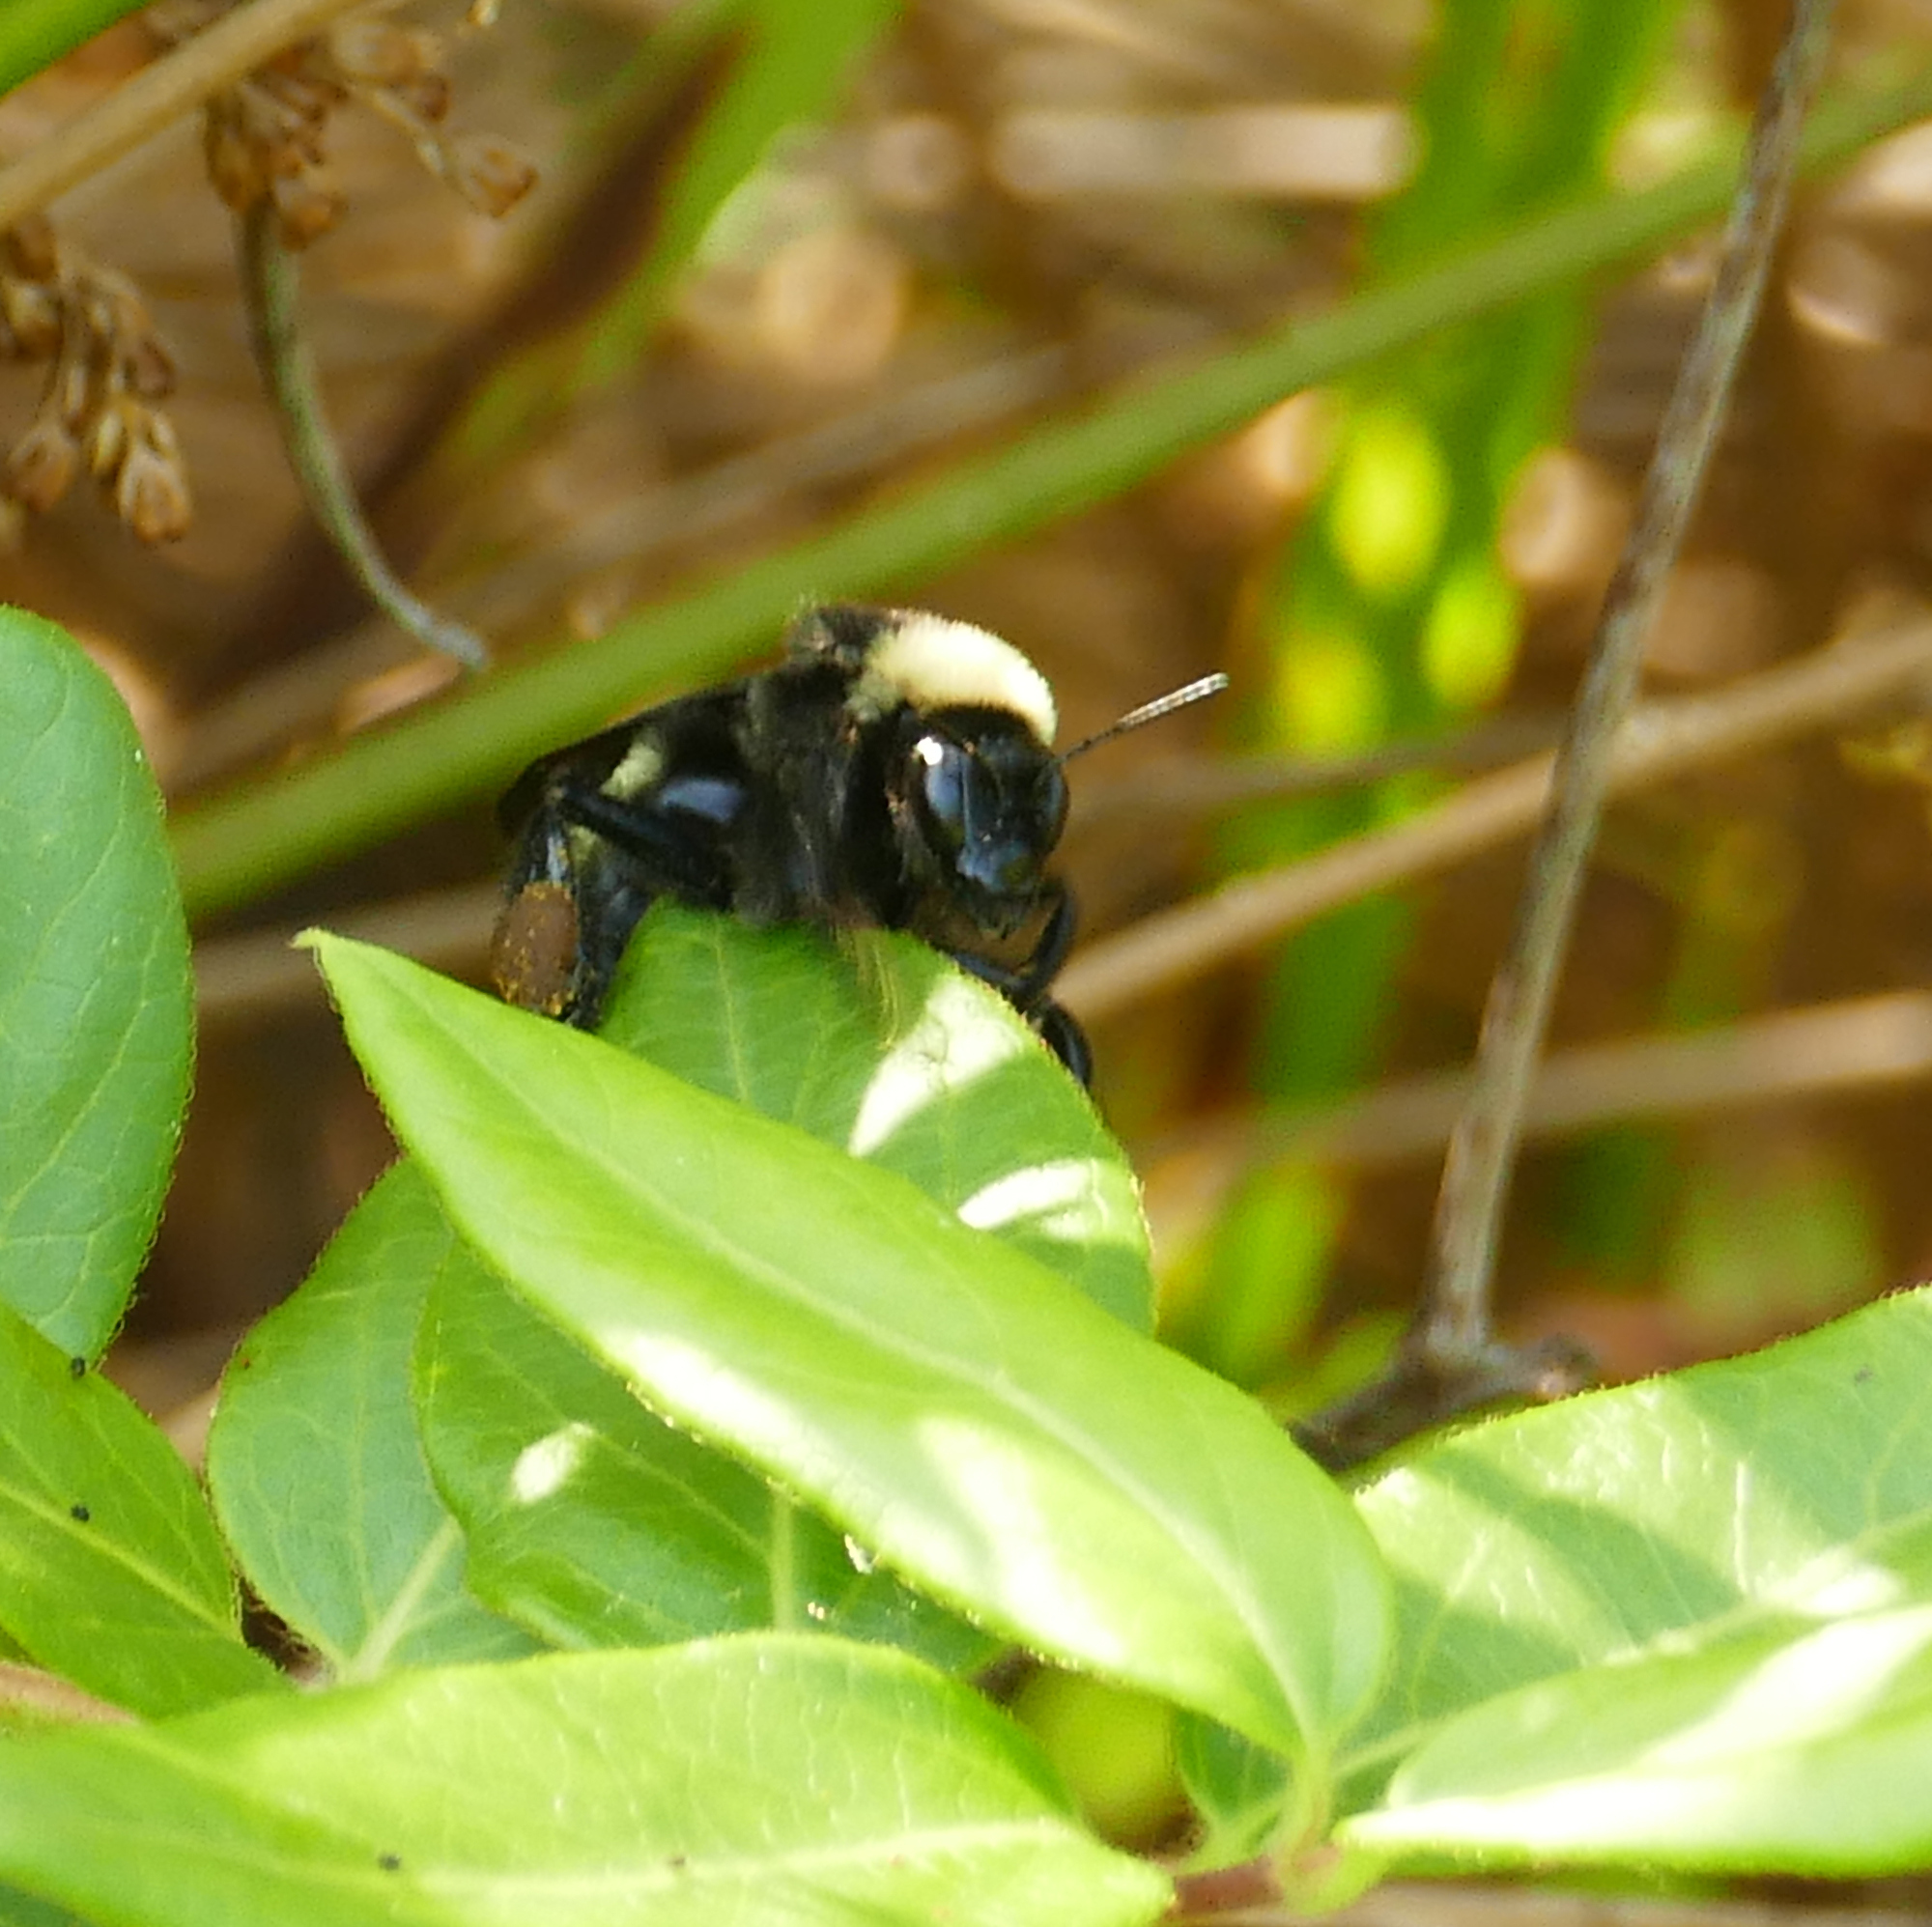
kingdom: Animalia
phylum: Arthropoda
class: Insecta
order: Hymenoptera
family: Apidae
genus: Bombus
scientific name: Bombus pensylvanicus
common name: Bumble bee
